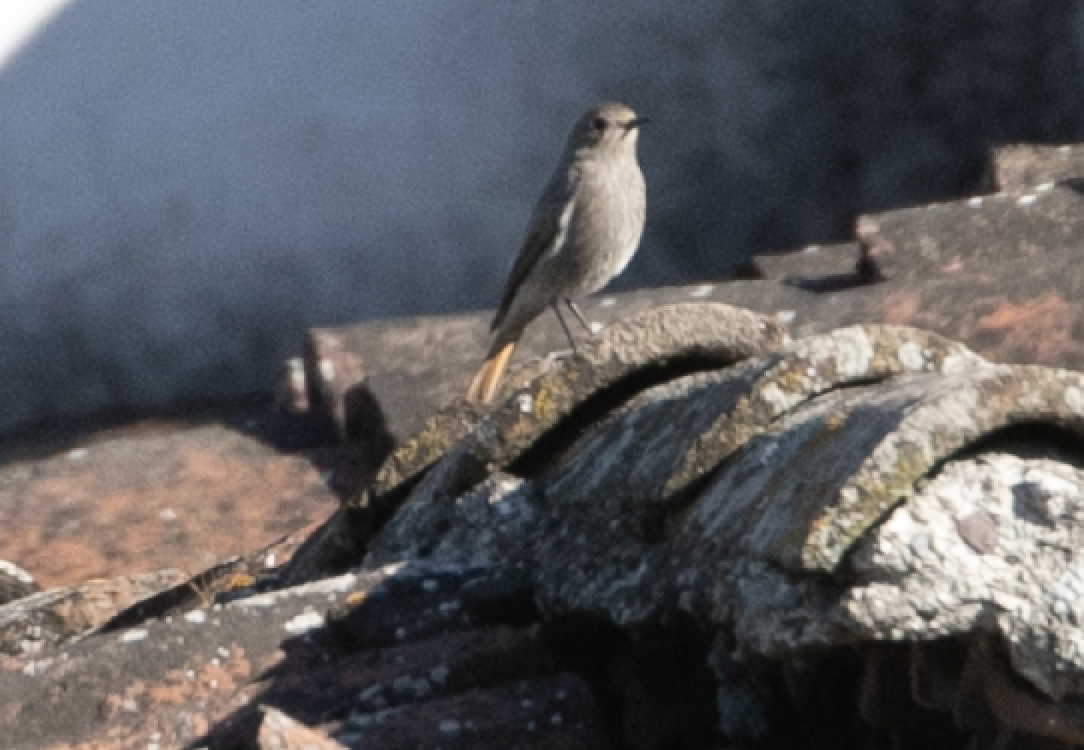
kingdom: Animalia
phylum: Chordata
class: Aves
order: Passeriformes
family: Muscicapidae
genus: Phoenicurus
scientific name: Phoenicurus ochruros
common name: Black redstart
